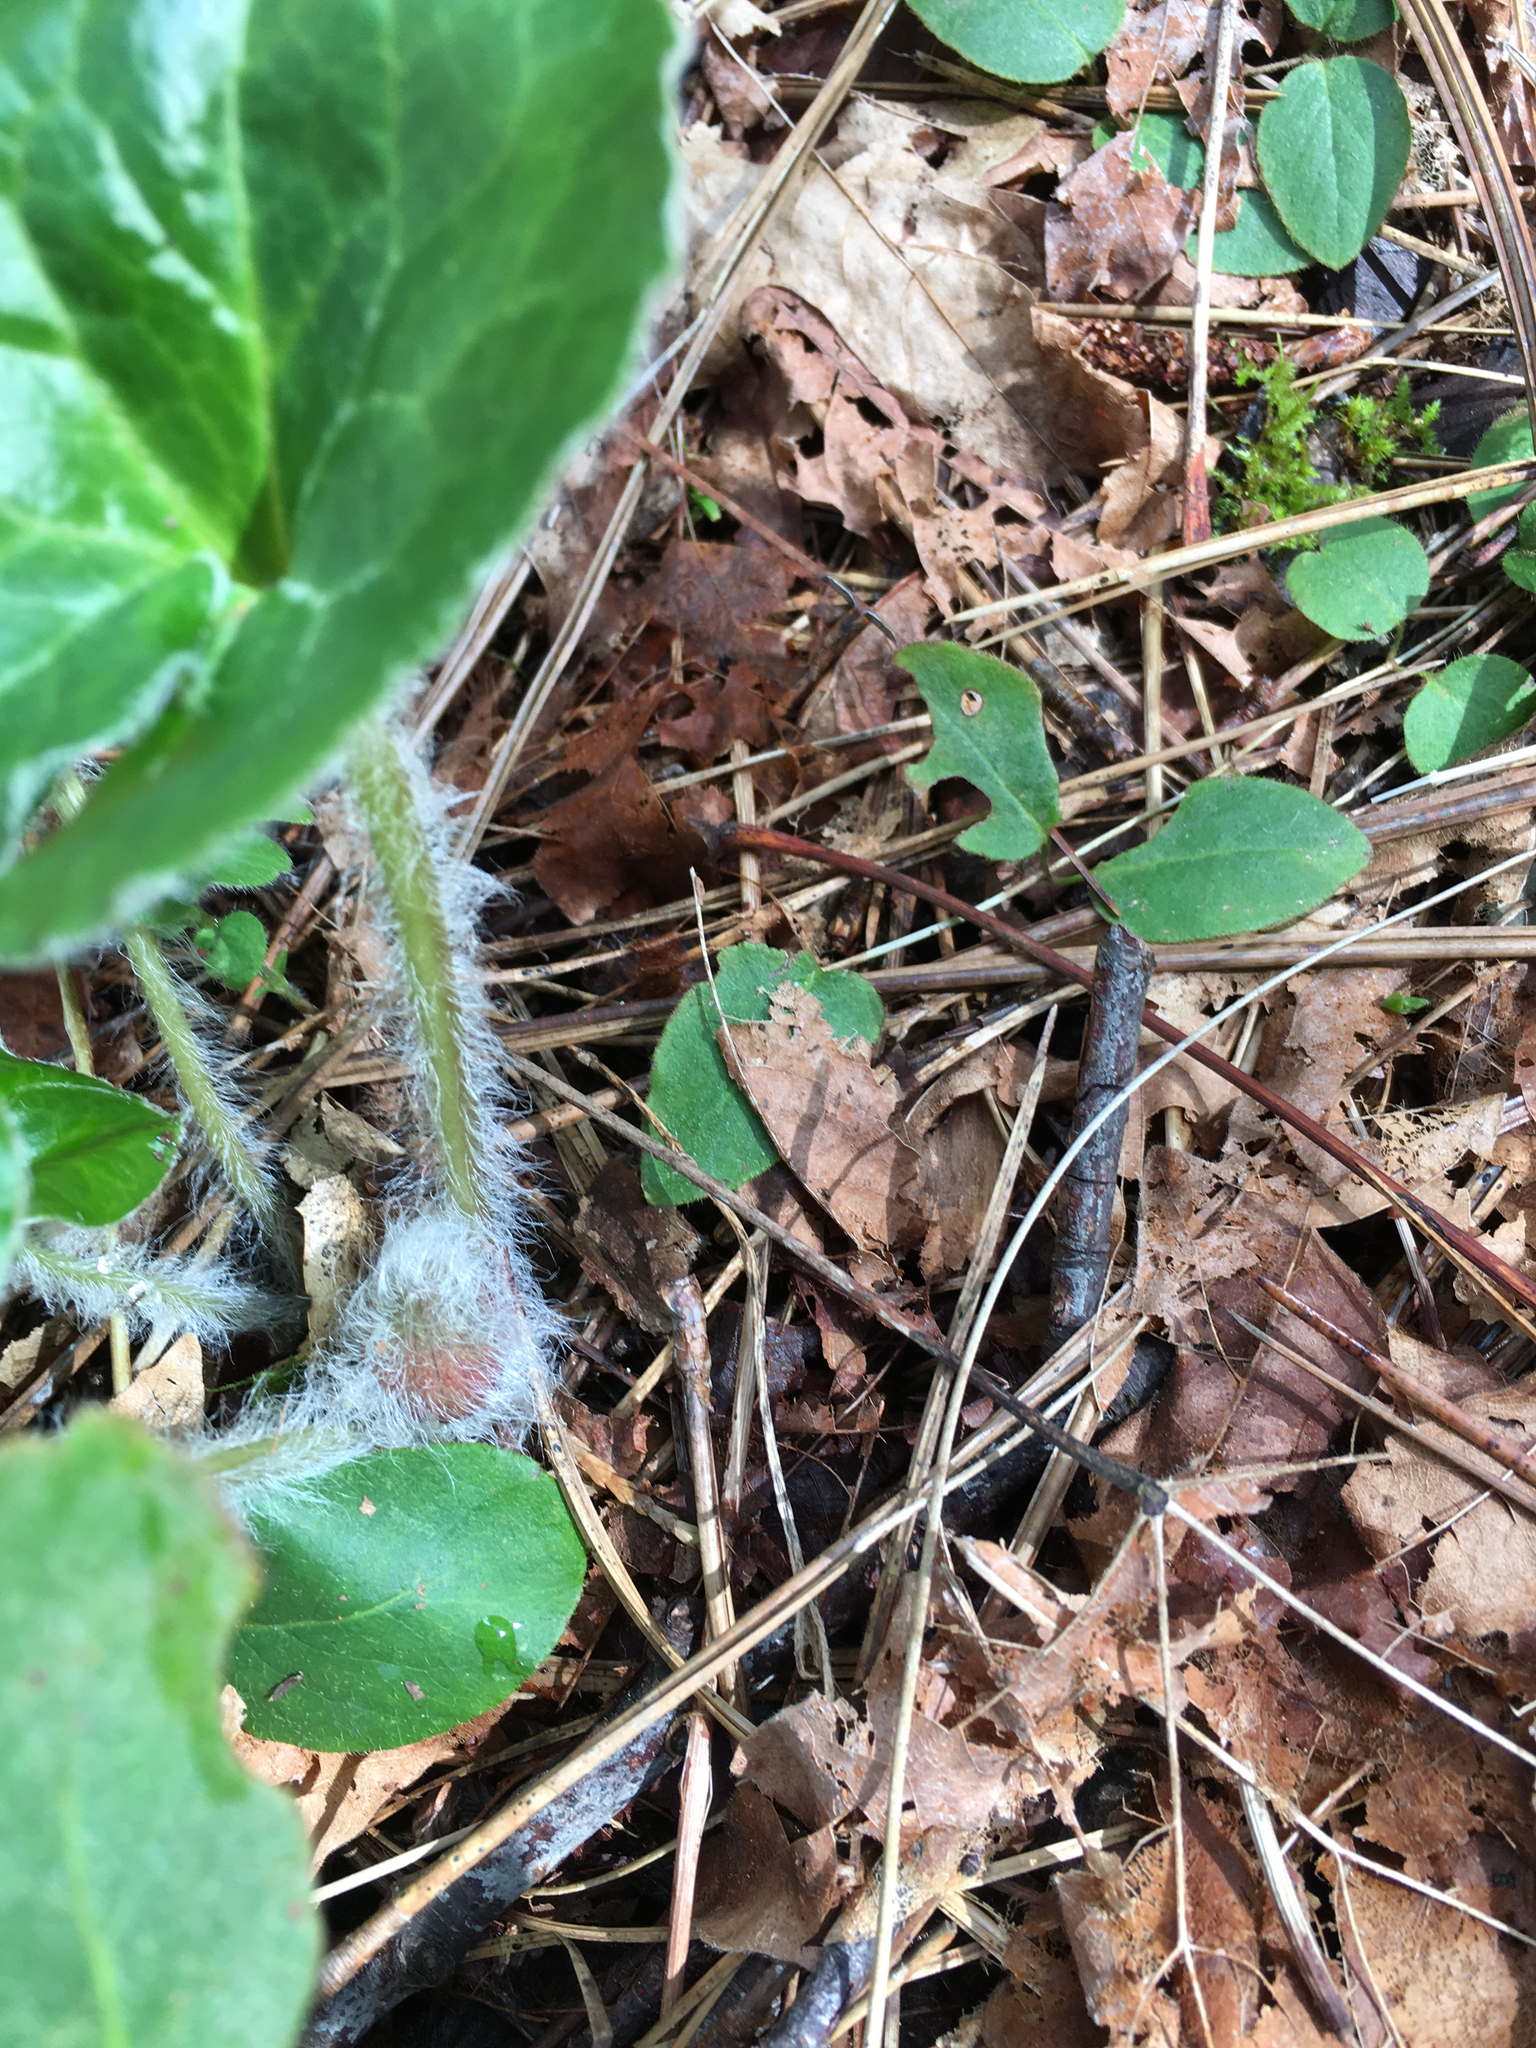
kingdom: Plantae
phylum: Tracheophyta
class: Magnoliopsida
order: Piperales
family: Aristolochiaceae
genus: Asarum
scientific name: Asarum hartwegii
